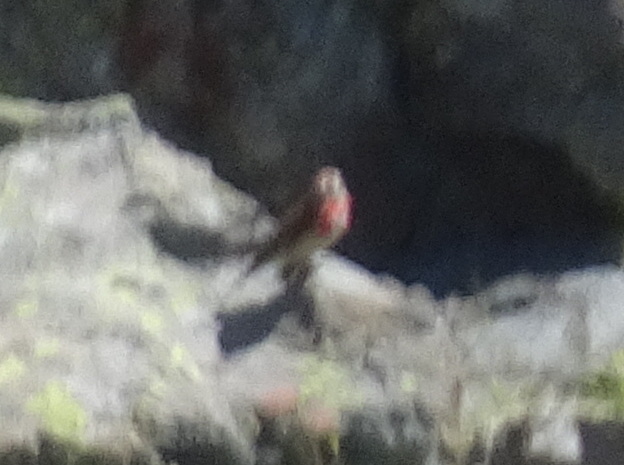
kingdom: Animalia
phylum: Chordata
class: Aves
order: Passeriformes
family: Fringillidae
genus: Linaria
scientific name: Linaria cannabina
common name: Common linnet
